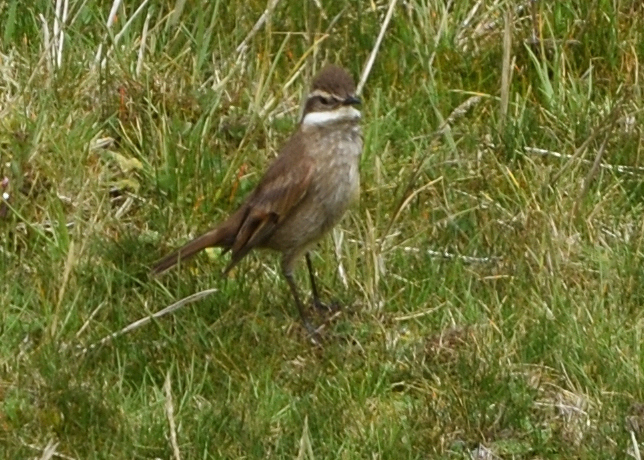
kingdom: Animalia
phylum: Chordata
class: Aves
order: Passeriformes
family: Furnariidae
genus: Cinclodes
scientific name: Cinclodes albidiventris
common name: Chestnut-winged cinclodes
